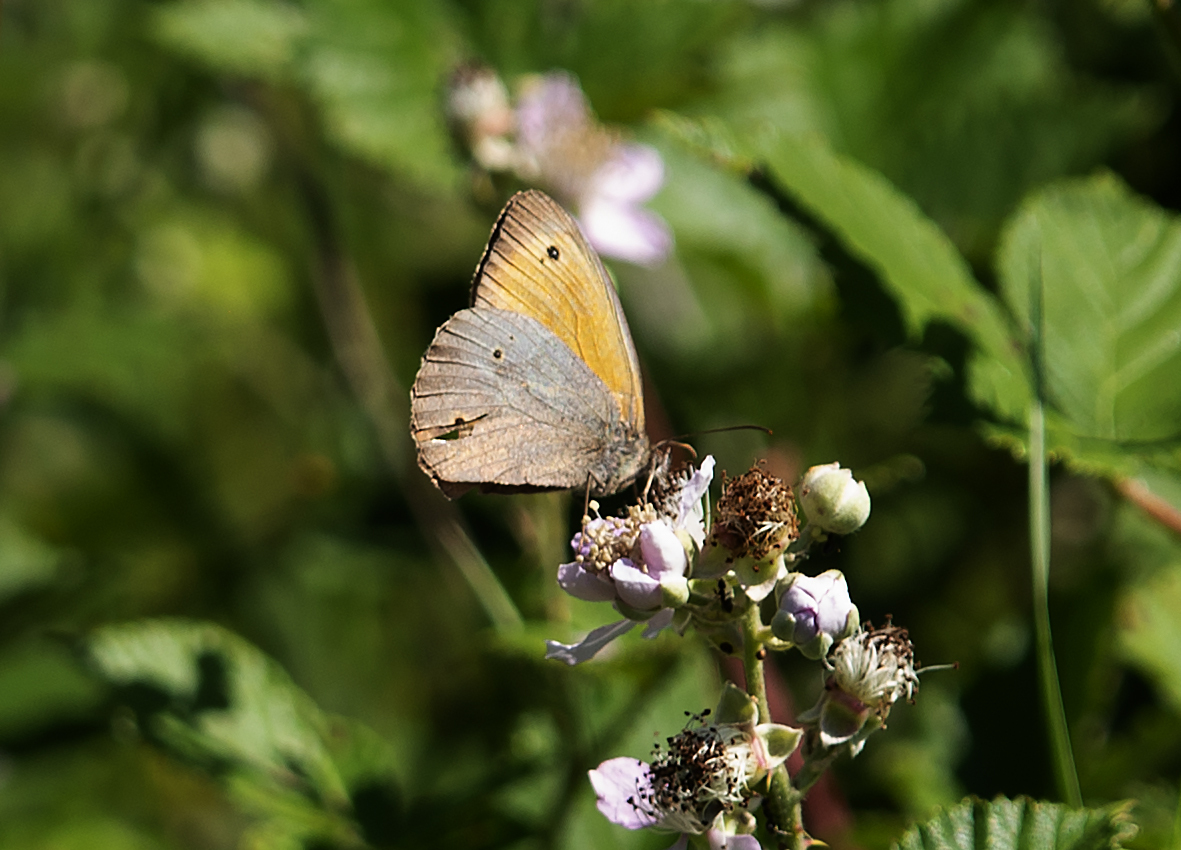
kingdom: Animalia
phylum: Arthropoda
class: Insecta
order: Lepidoptera
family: Nymphalidae
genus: Maniola
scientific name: Maniola jurtina
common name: Meadow brown
